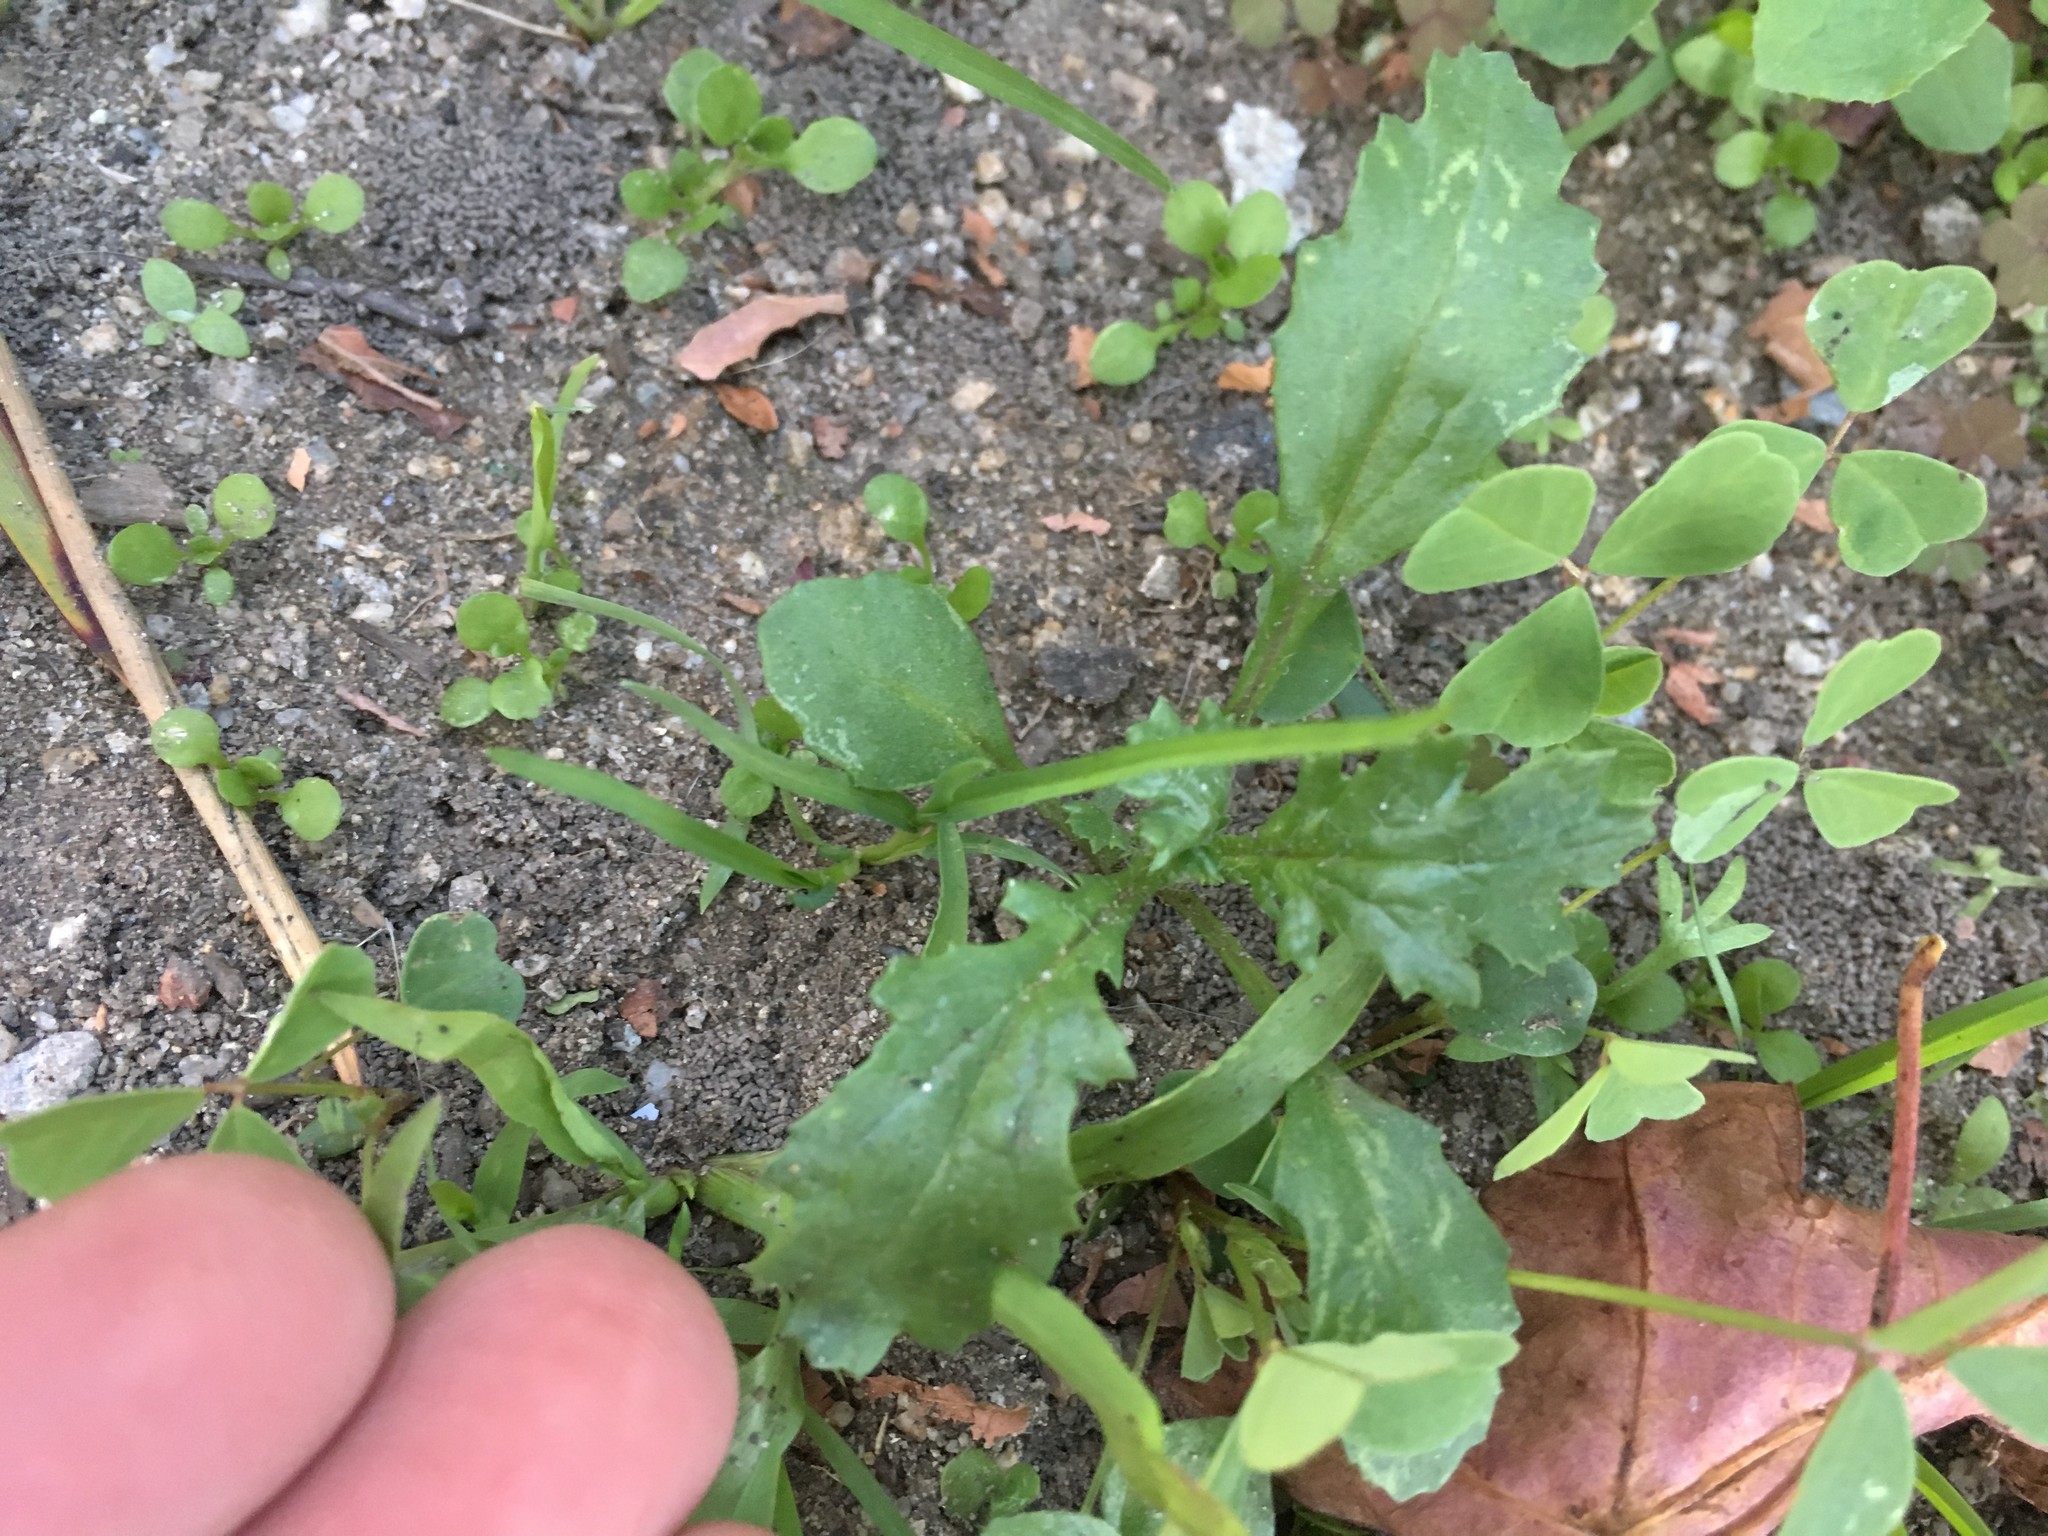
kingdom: Plantae
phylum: Tracheophyta
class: Magnoliopsida
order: Asterales
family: Asteraceae
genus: Senecio
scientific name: Senecio vulgaris
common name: Old-man-in-the-spring
